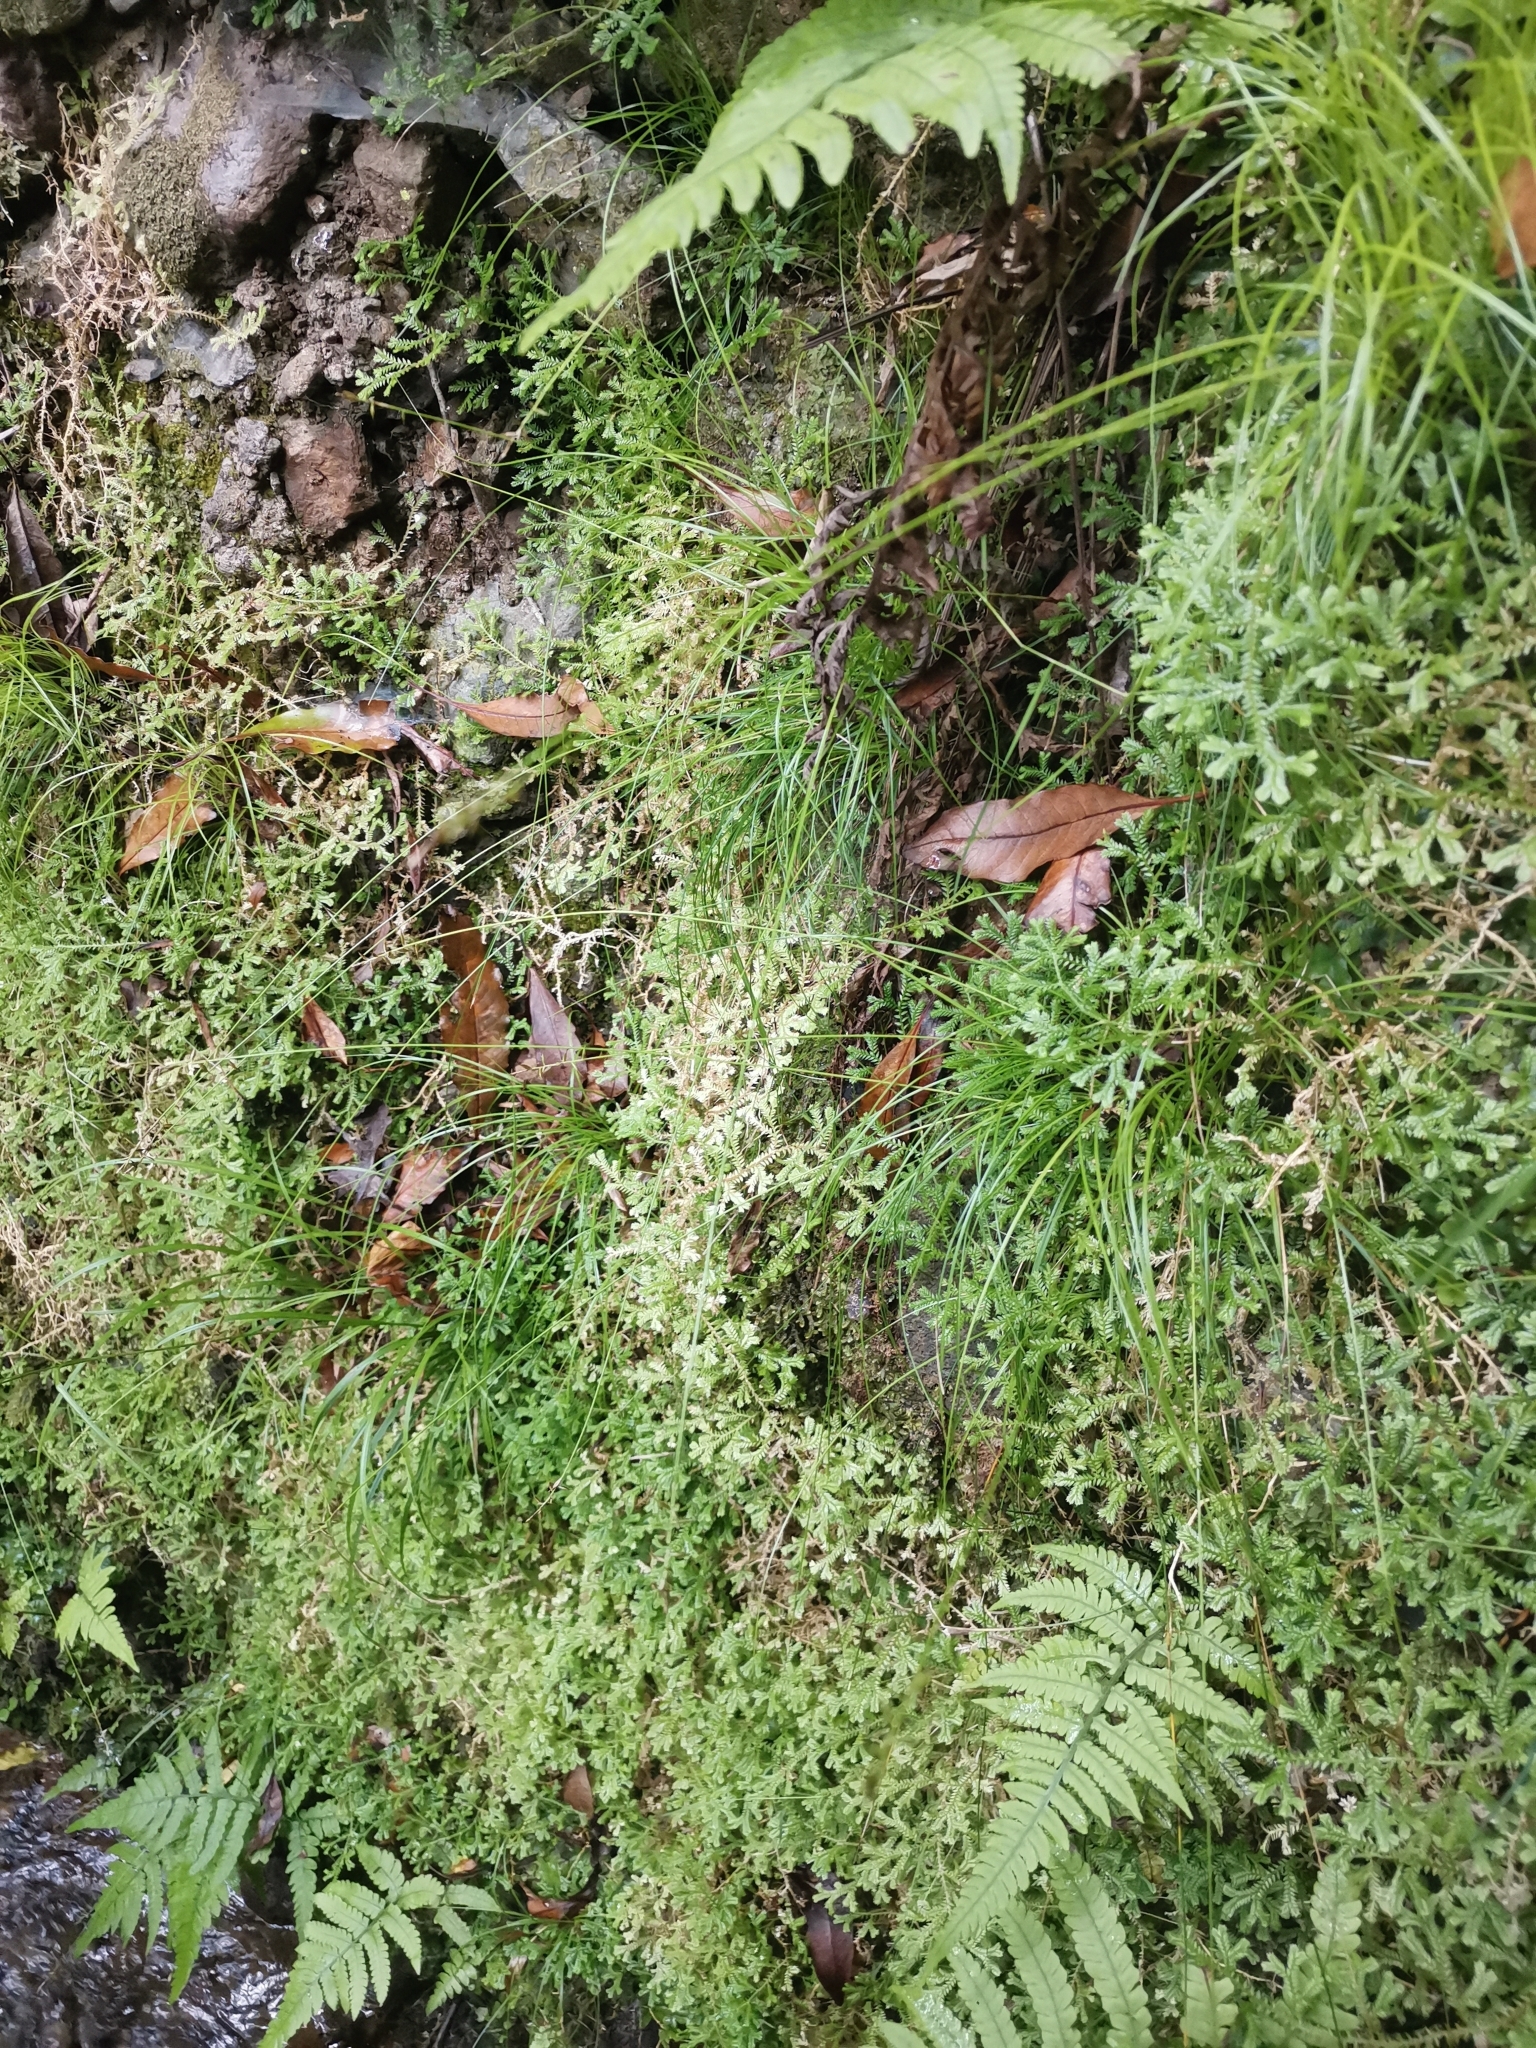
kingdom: Plantae
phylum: Tracheophyta
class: Liliopsida
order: Poales
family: Cyperaceae
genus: Carex
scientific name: Carex peregrina
